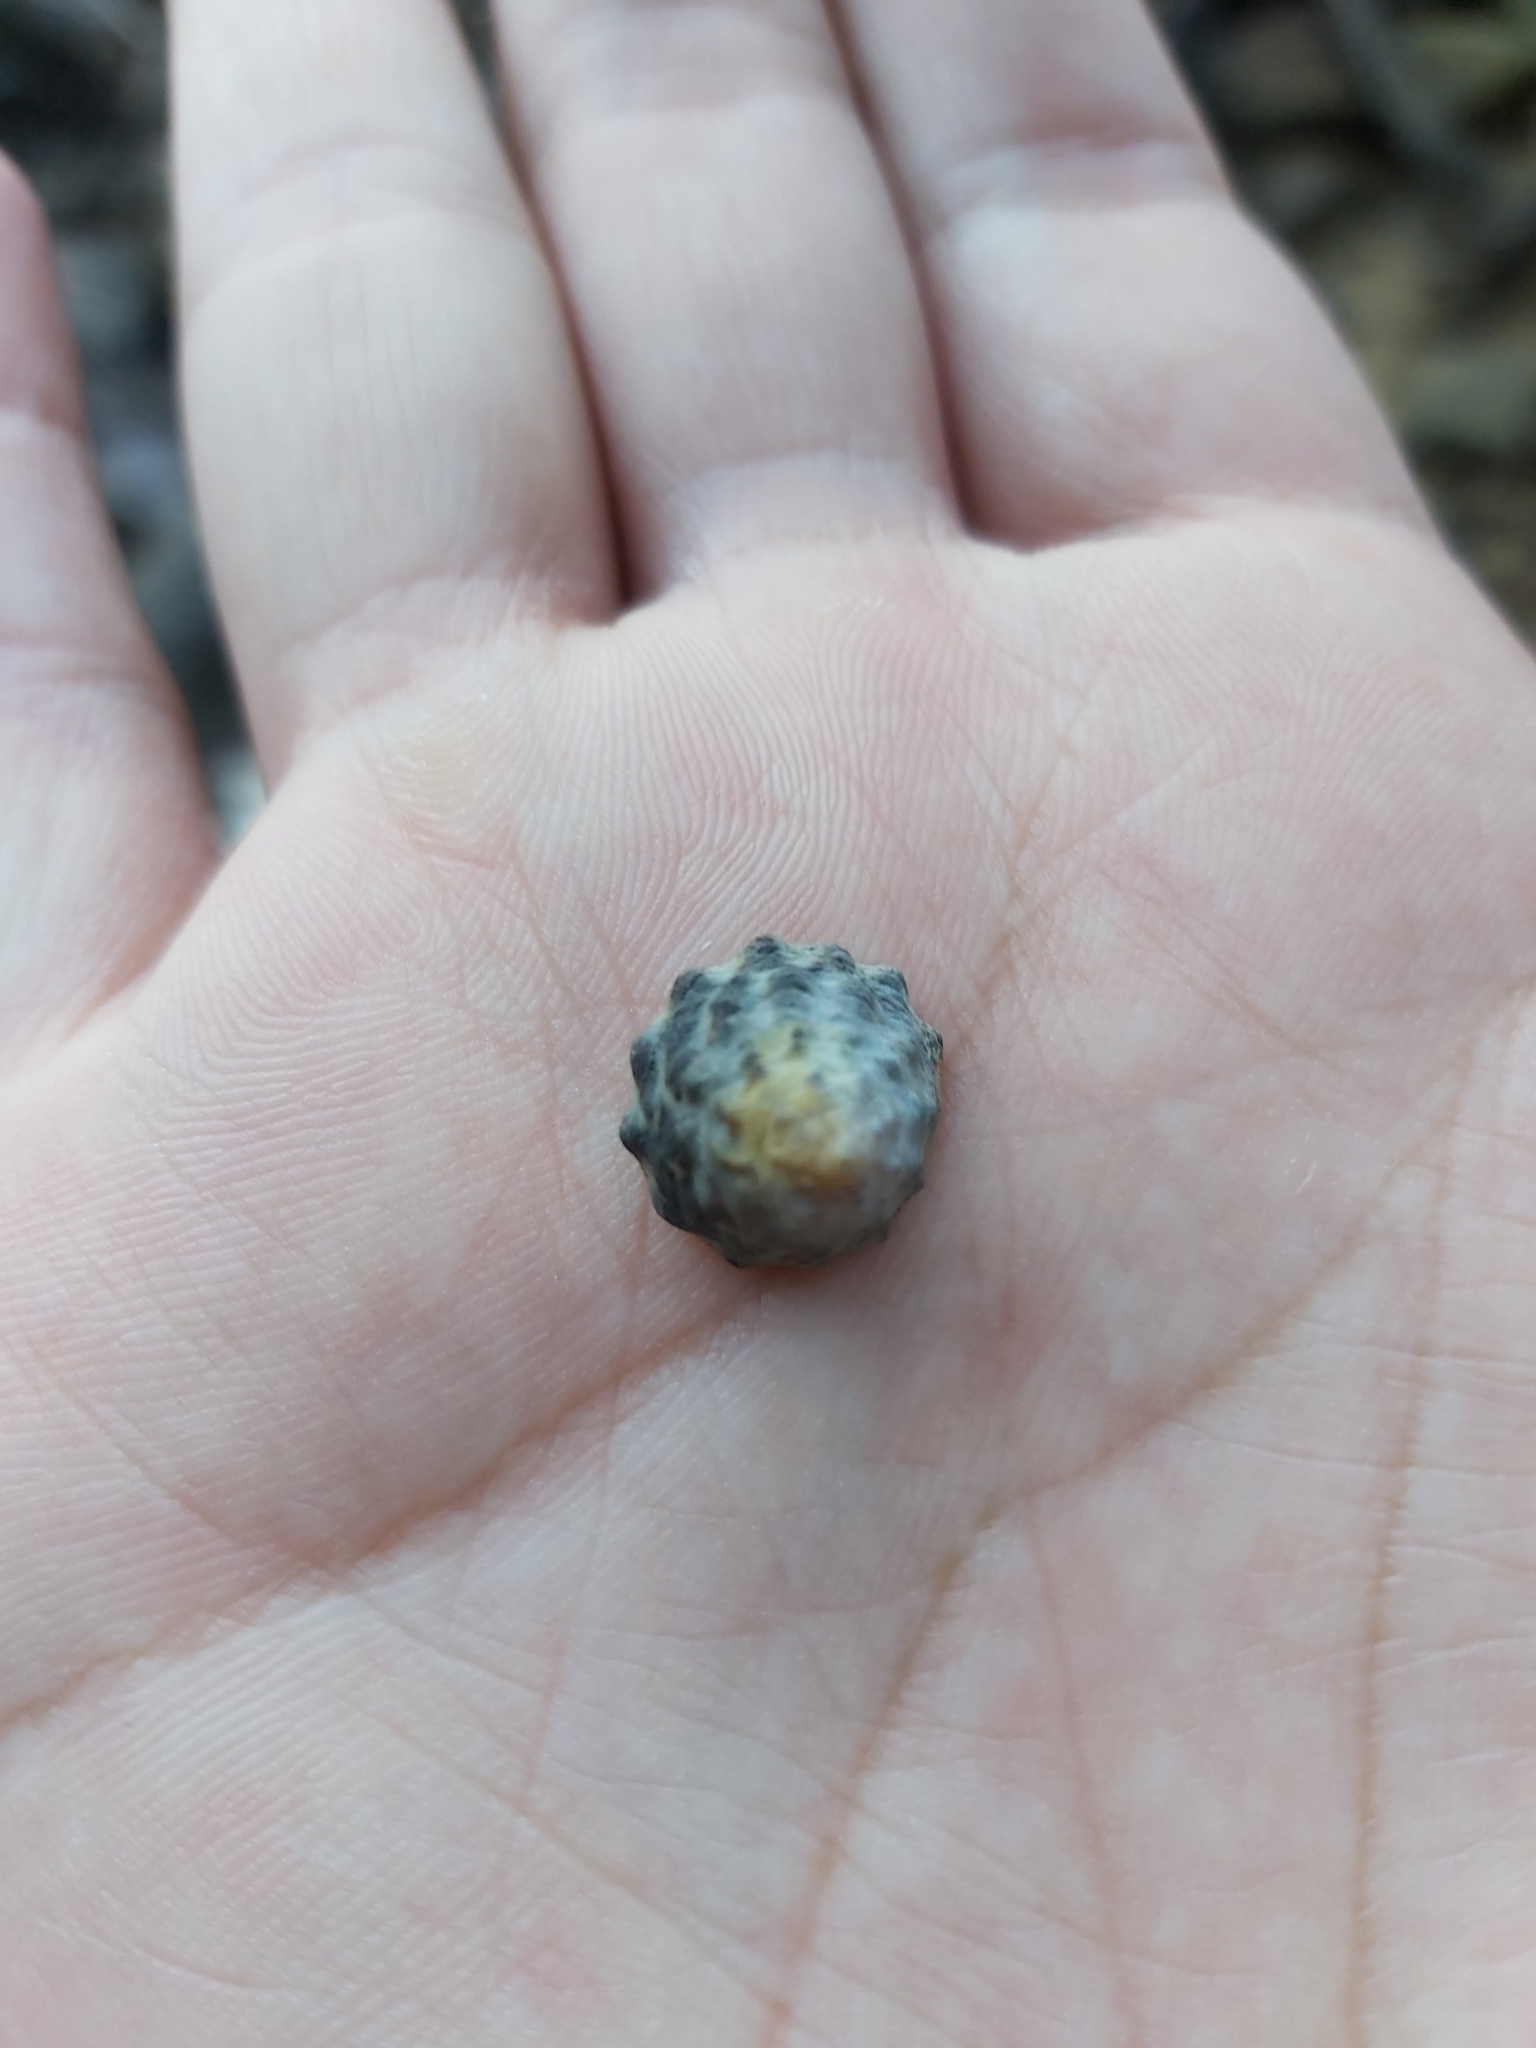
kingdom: Animalia
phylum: Mollusca
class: Gastropoda
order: Littorinimorpha
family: Littorinidae
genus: Bembicium
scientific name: Bembicium auratum
